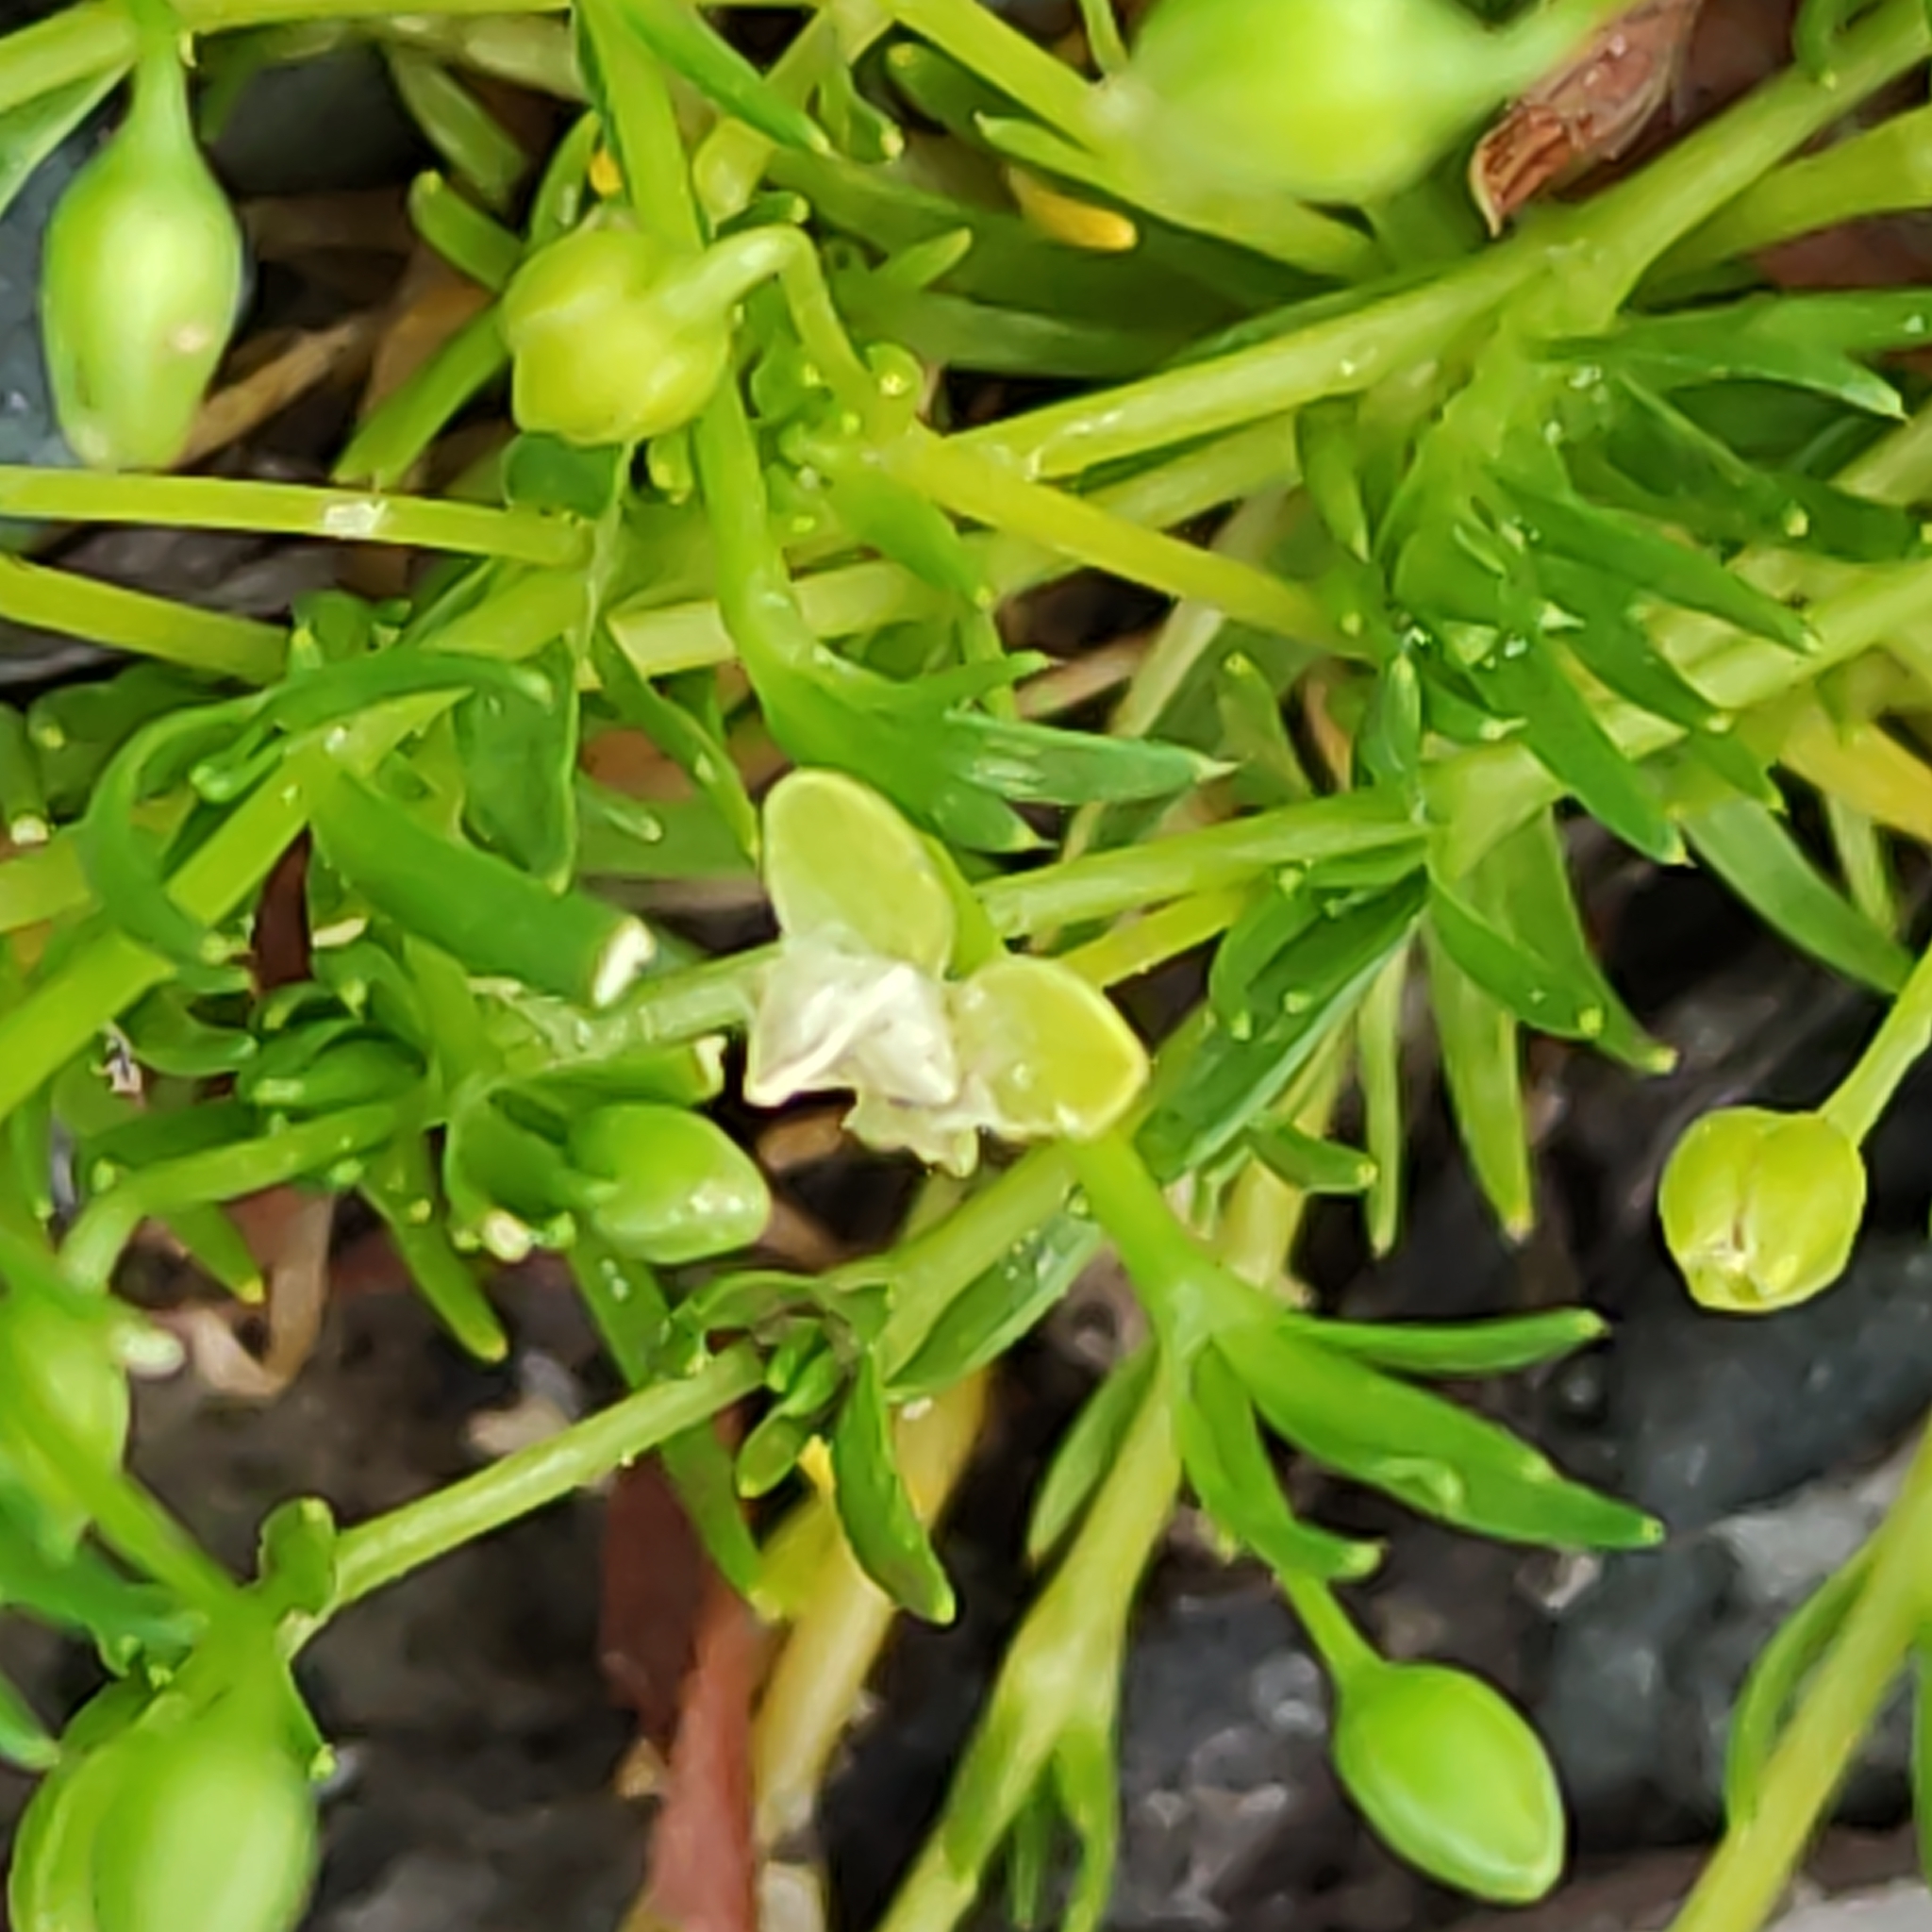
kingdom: Plantae
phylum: Tracheophyta
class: Magnoliopsida
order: Caryophyllales
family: Caryophyllaceae
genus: Sagina
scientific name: Sagina procumbens
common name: Procumbent pearlwort
